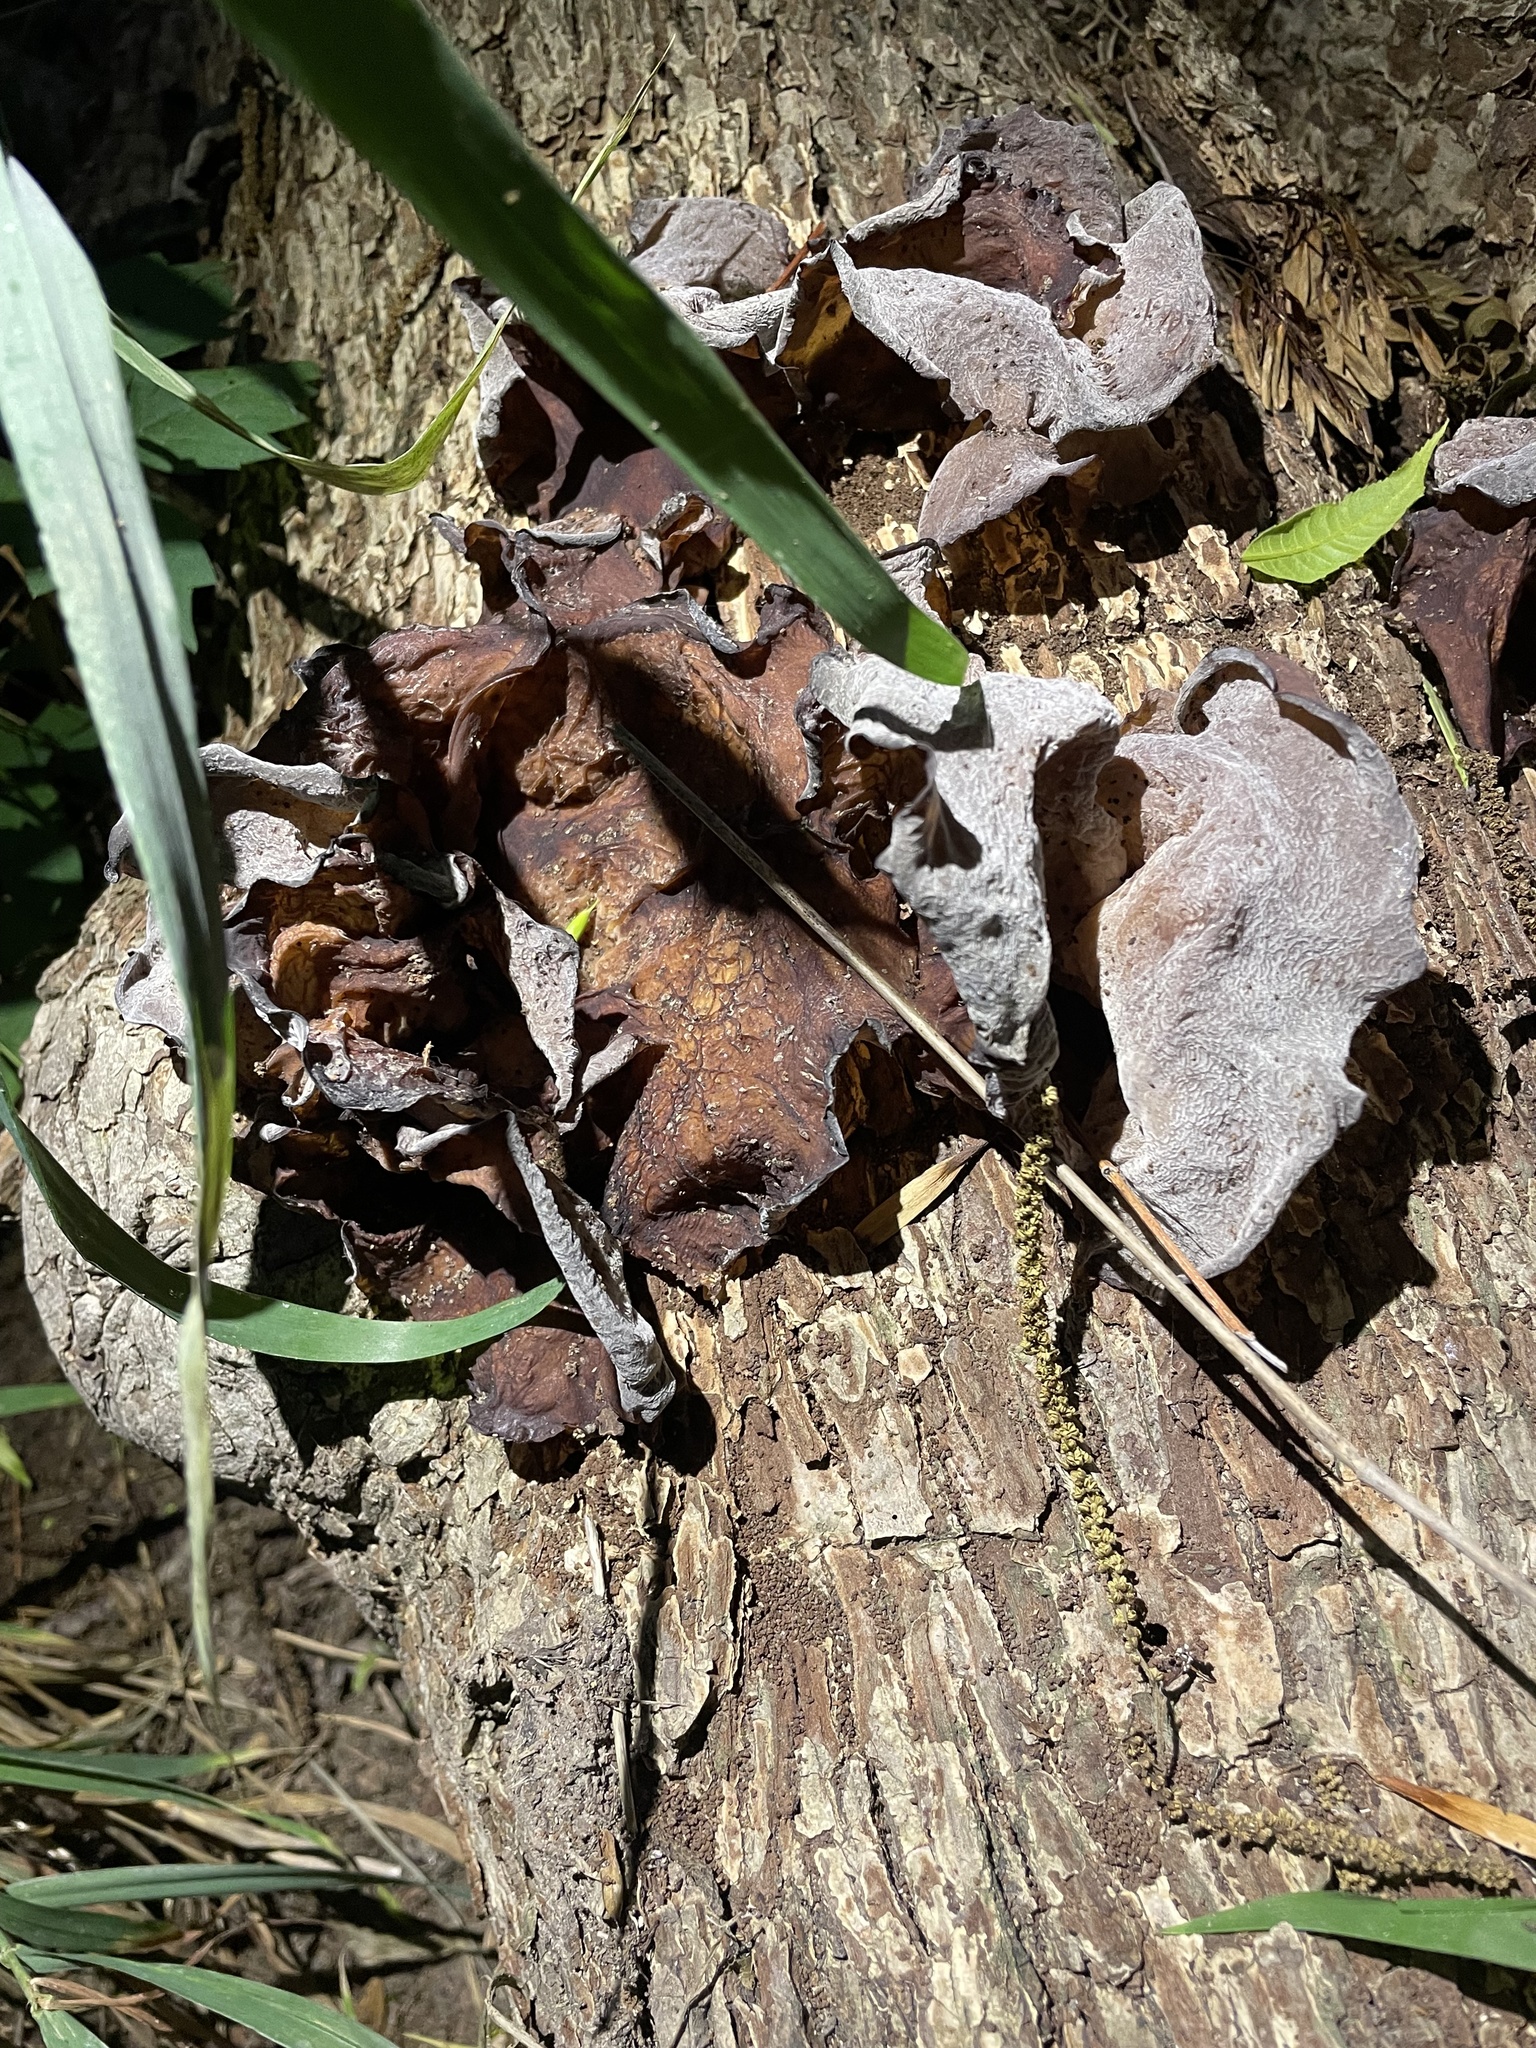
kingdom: Fungi
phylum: Basidiomycota
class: Agaricomycetes
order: Auriculariales
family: Auriculariaceae
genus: Auricularia
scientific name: Auricularia
